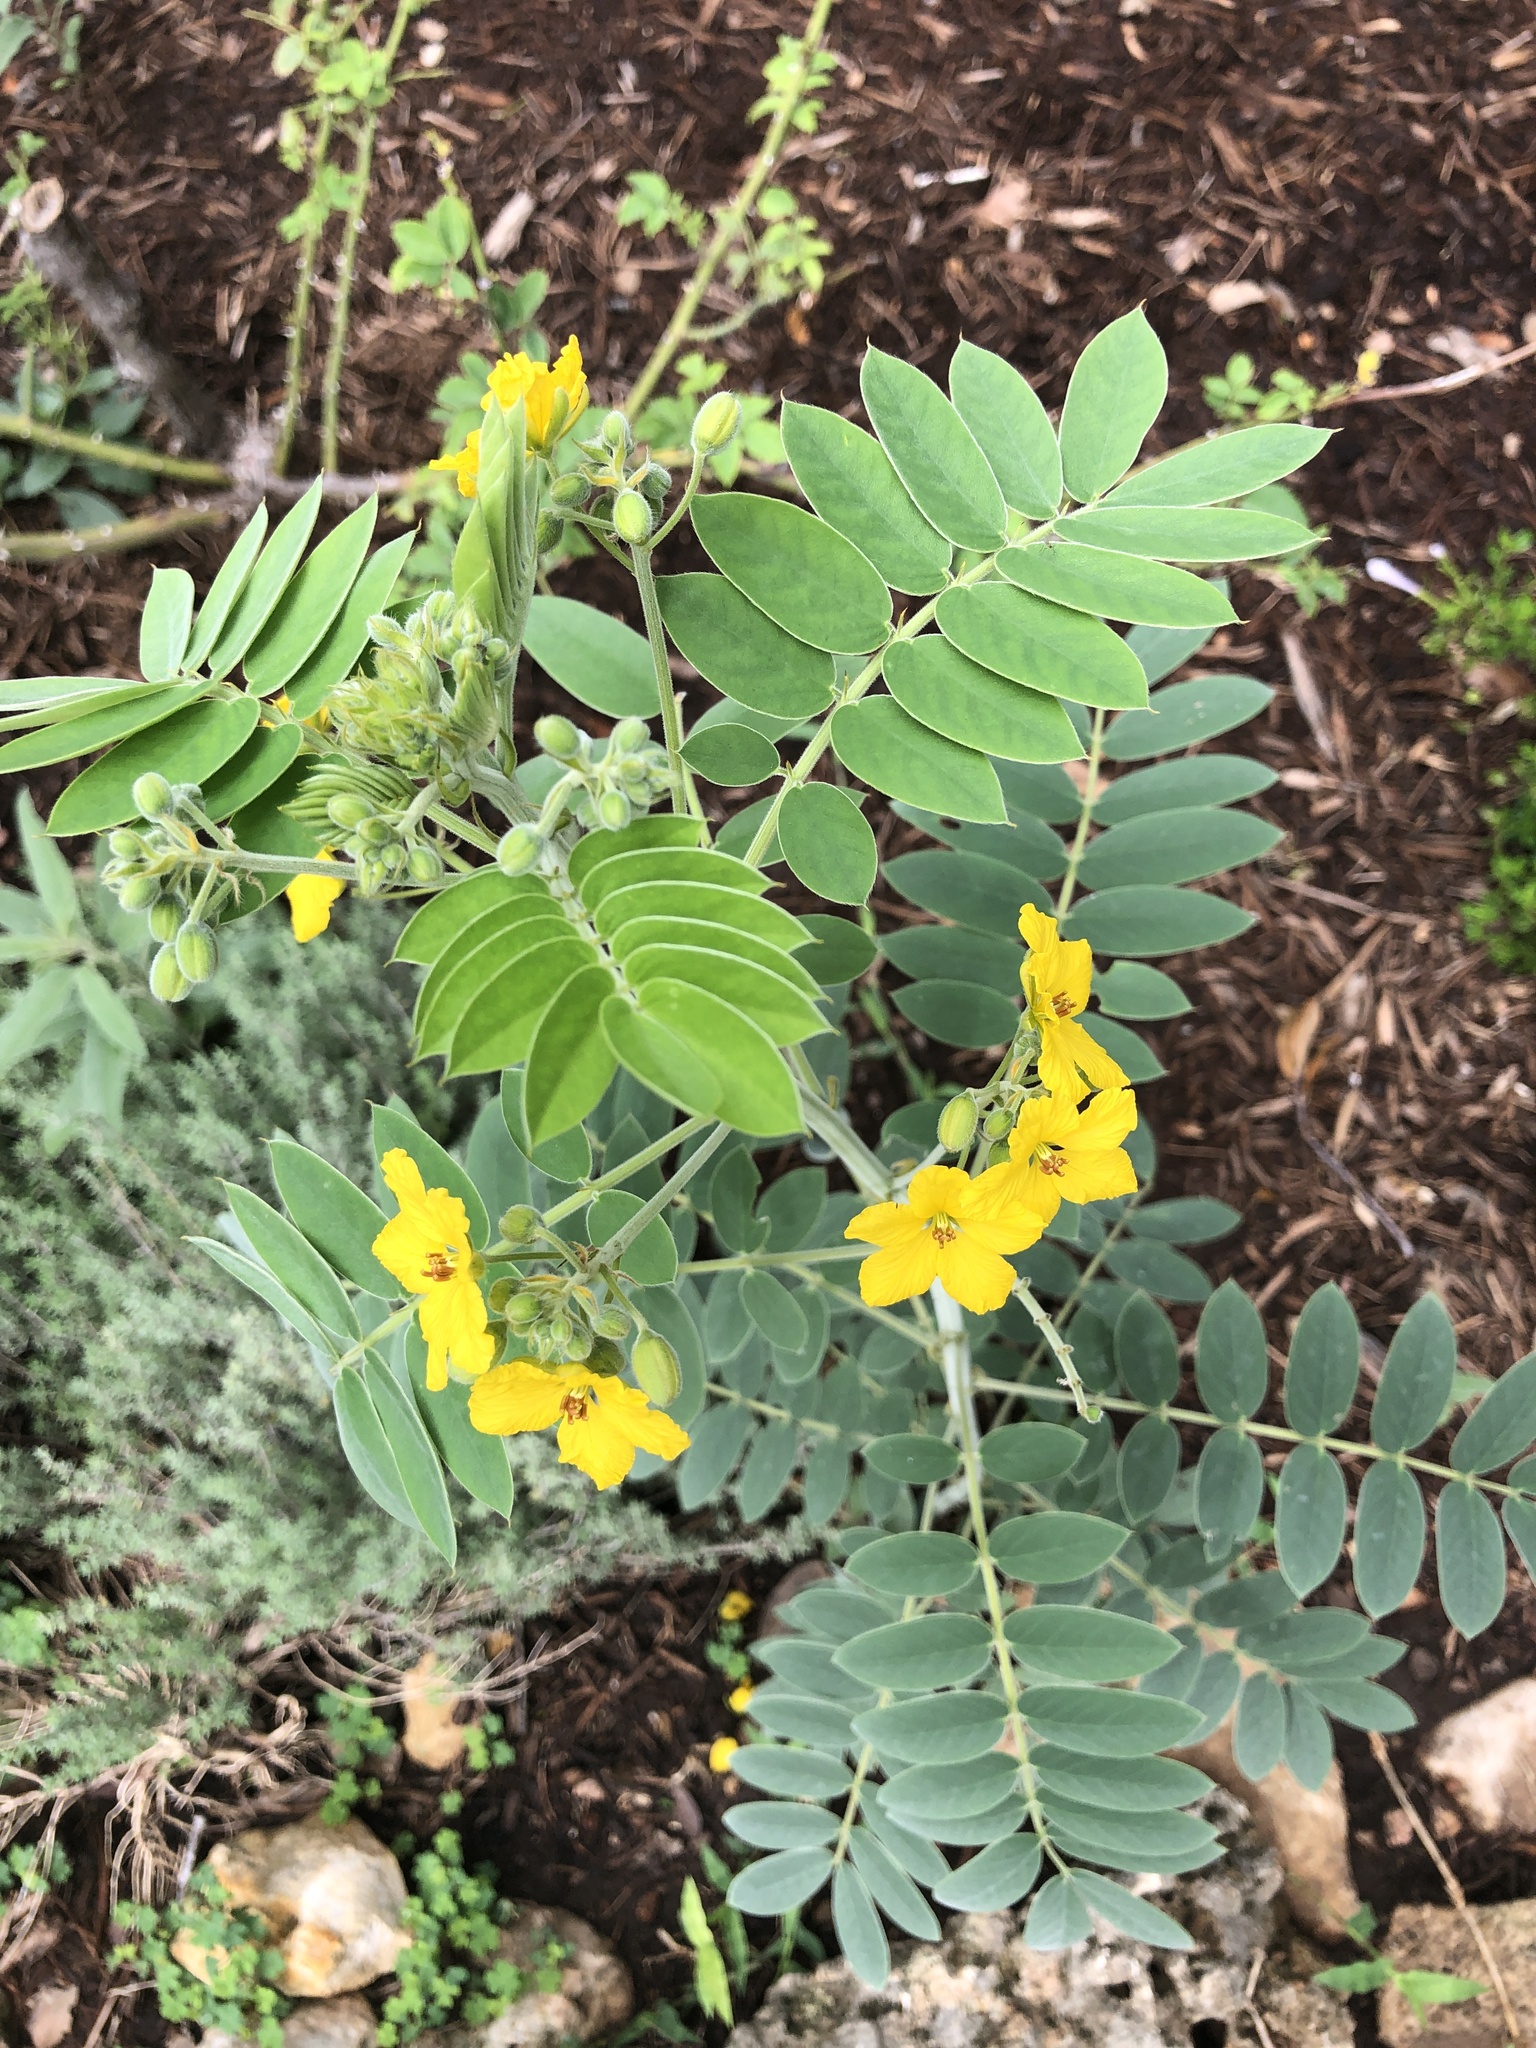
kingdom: Plantae
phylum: Tracheophyta
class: Magnoliopsida
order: Fabales
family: Fabaceae
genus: Senna
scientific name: Senna lindheimeriana
